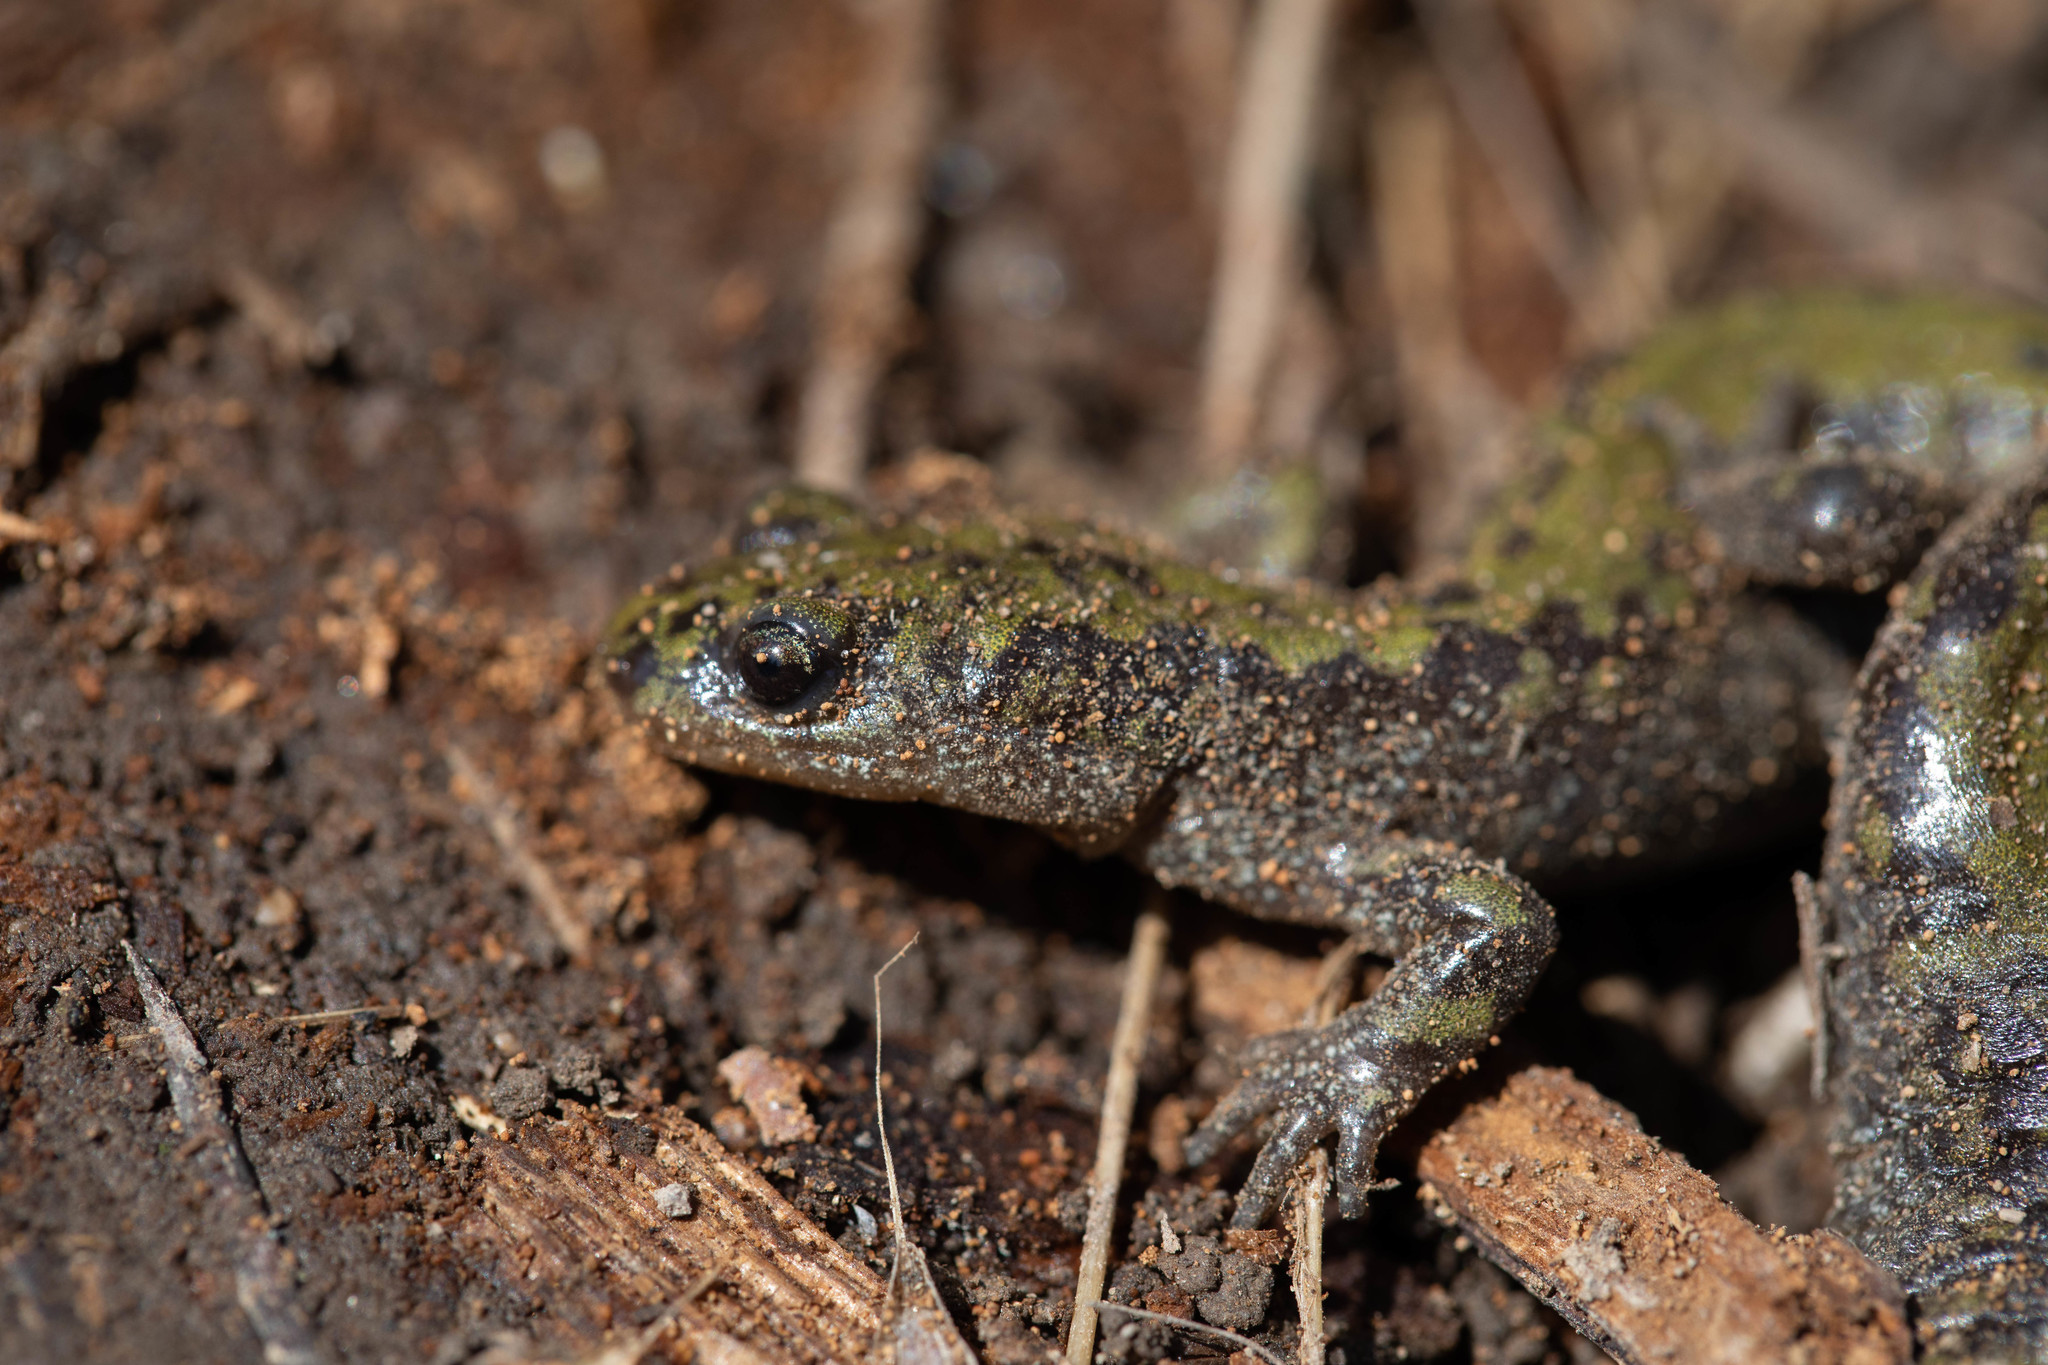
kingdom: Animalia
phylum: Chordata
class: Amphibia
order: Caudata
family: Ambystomatidae
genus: Ambystoma
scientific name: Ambystoma macrodactylum
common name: Long-toed salamander
